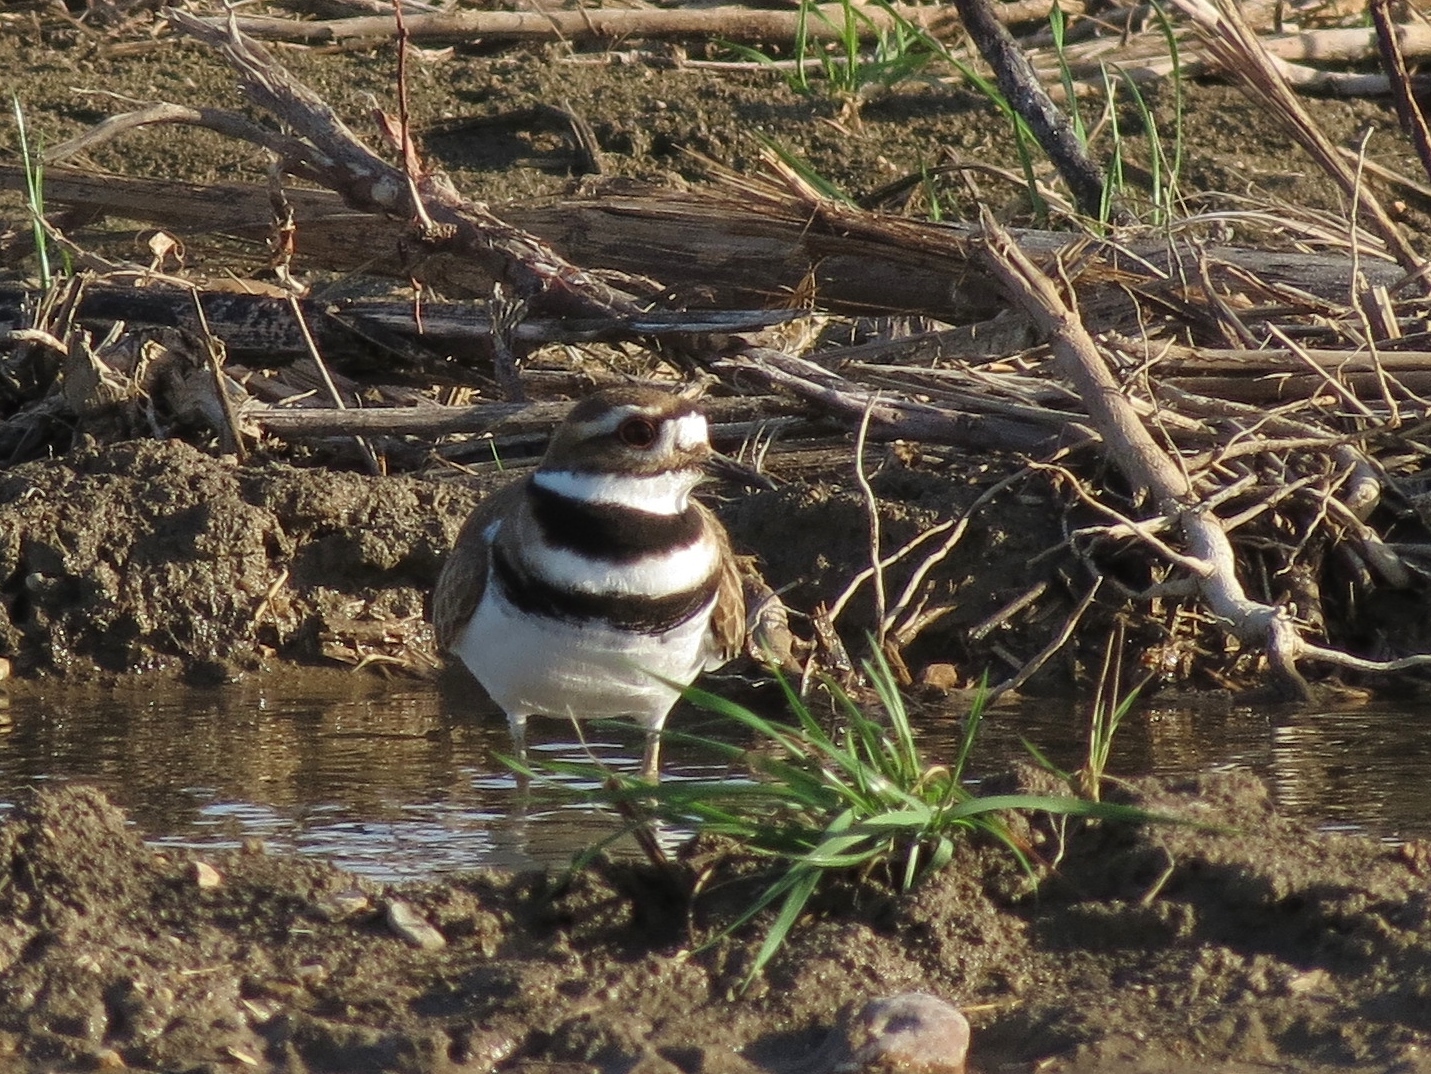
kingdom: Animalia
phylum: Chordata
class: Aves
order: Charadriiformes
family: Charadriidae
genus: Charadrius
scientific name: Charadrius vociferus
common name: Killdeer
